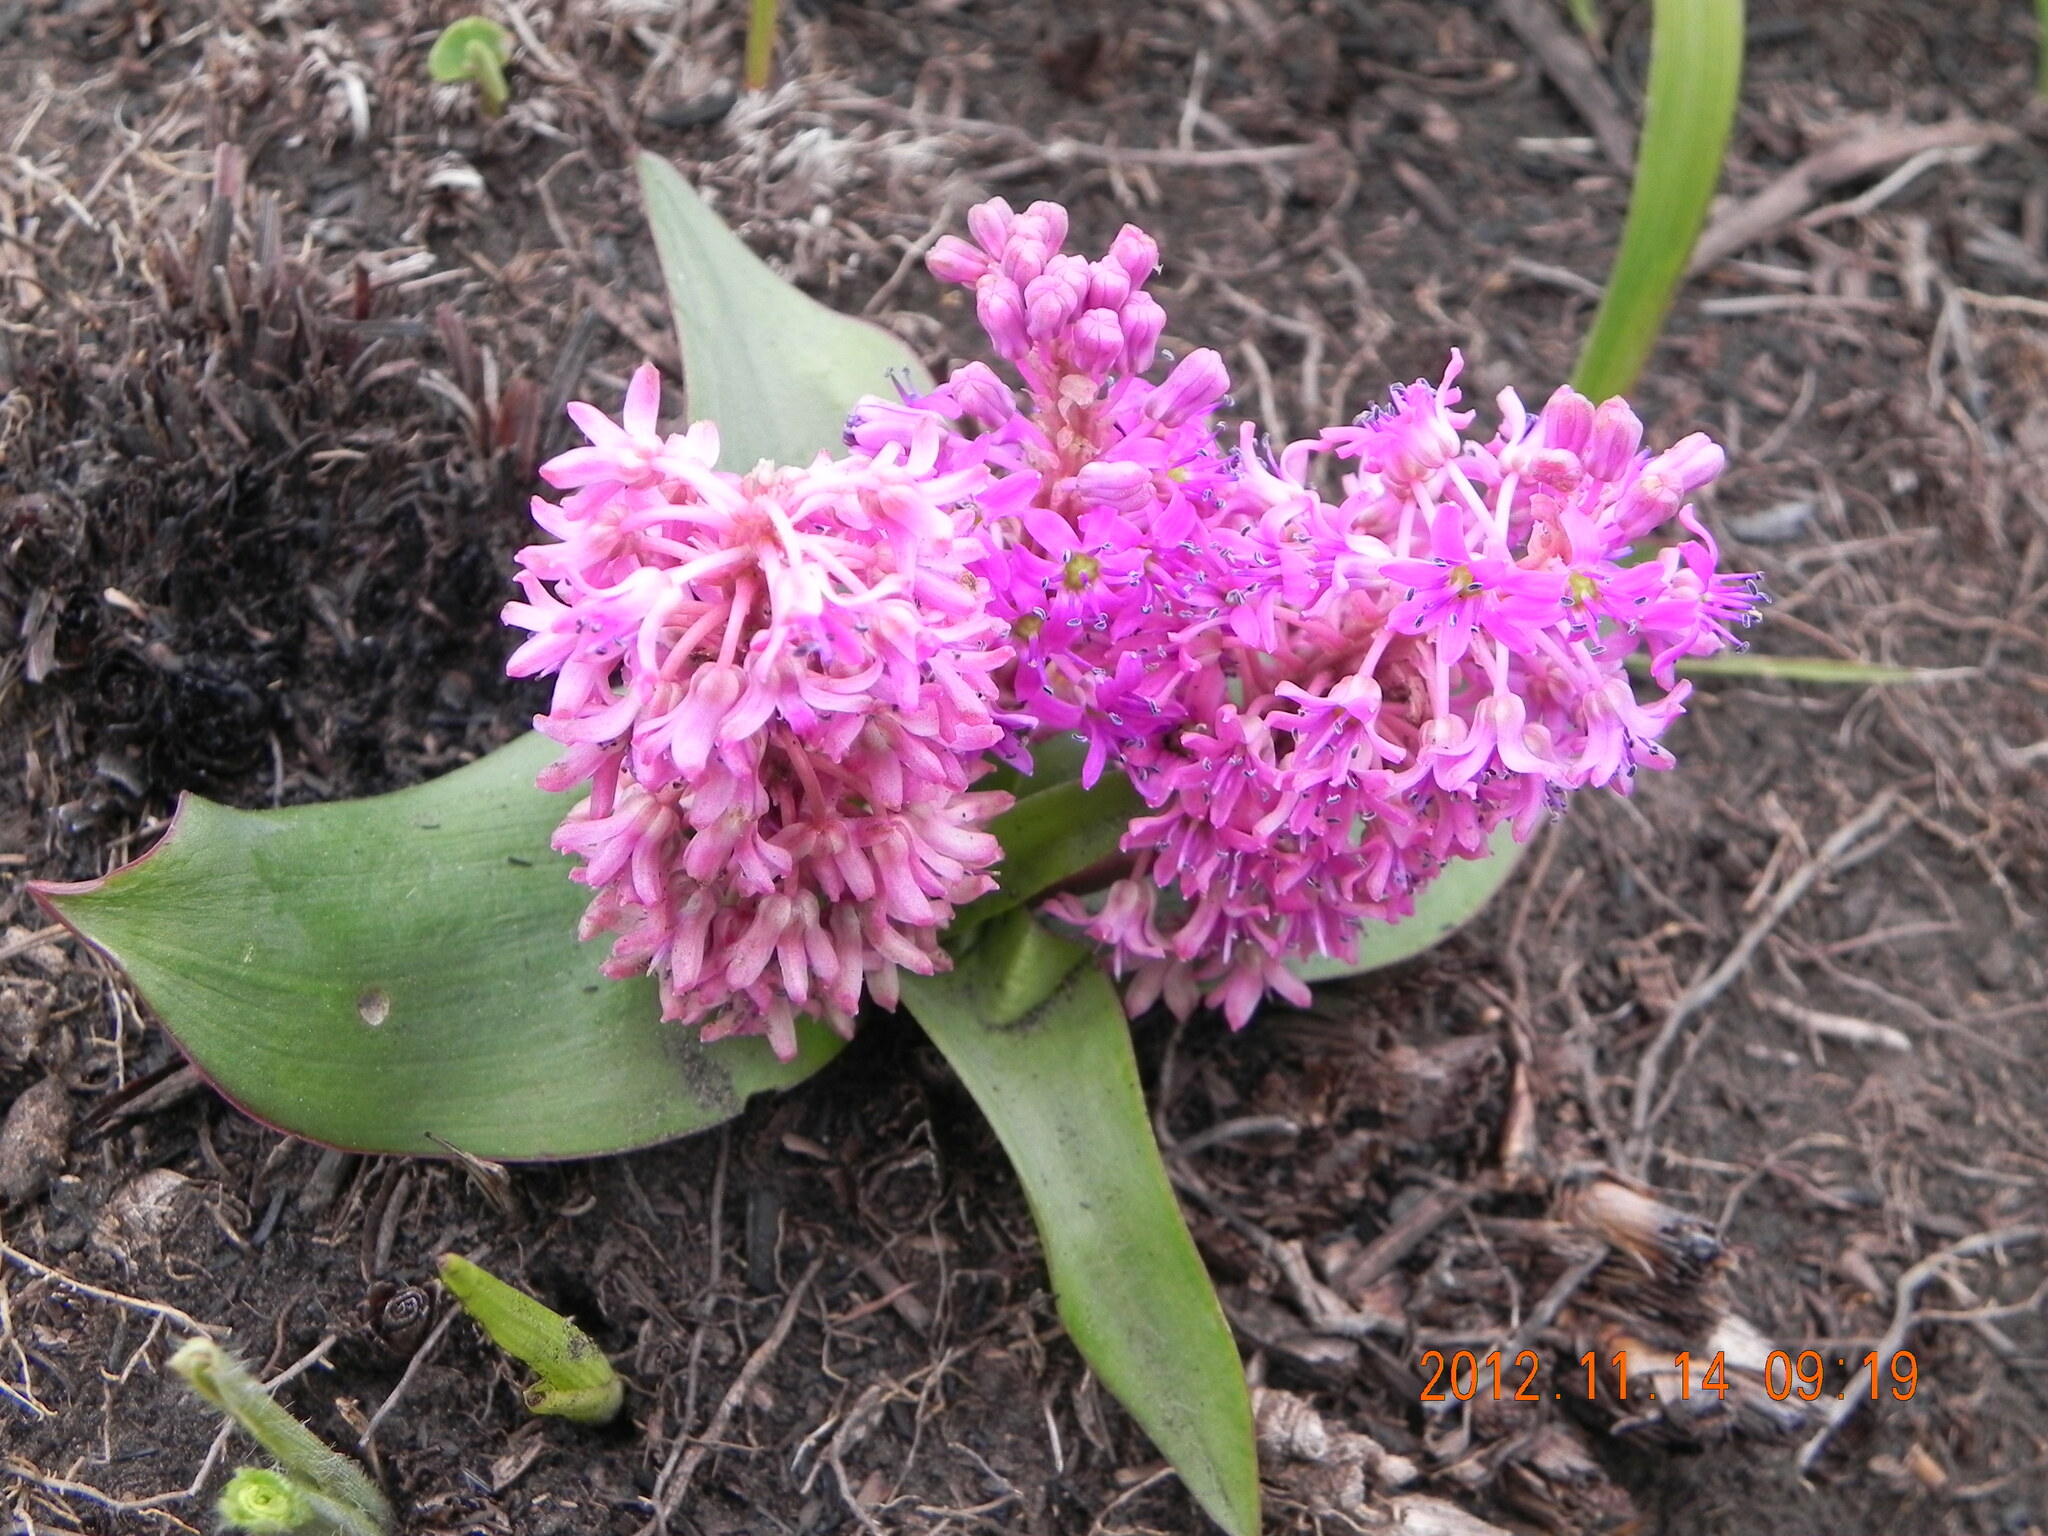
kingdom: Plantae
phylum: Tracheophyta
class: Liliopsida
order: Asparagales
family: Asparagaceae
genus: Ledebouria
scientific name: Ledebouria sandersonii
